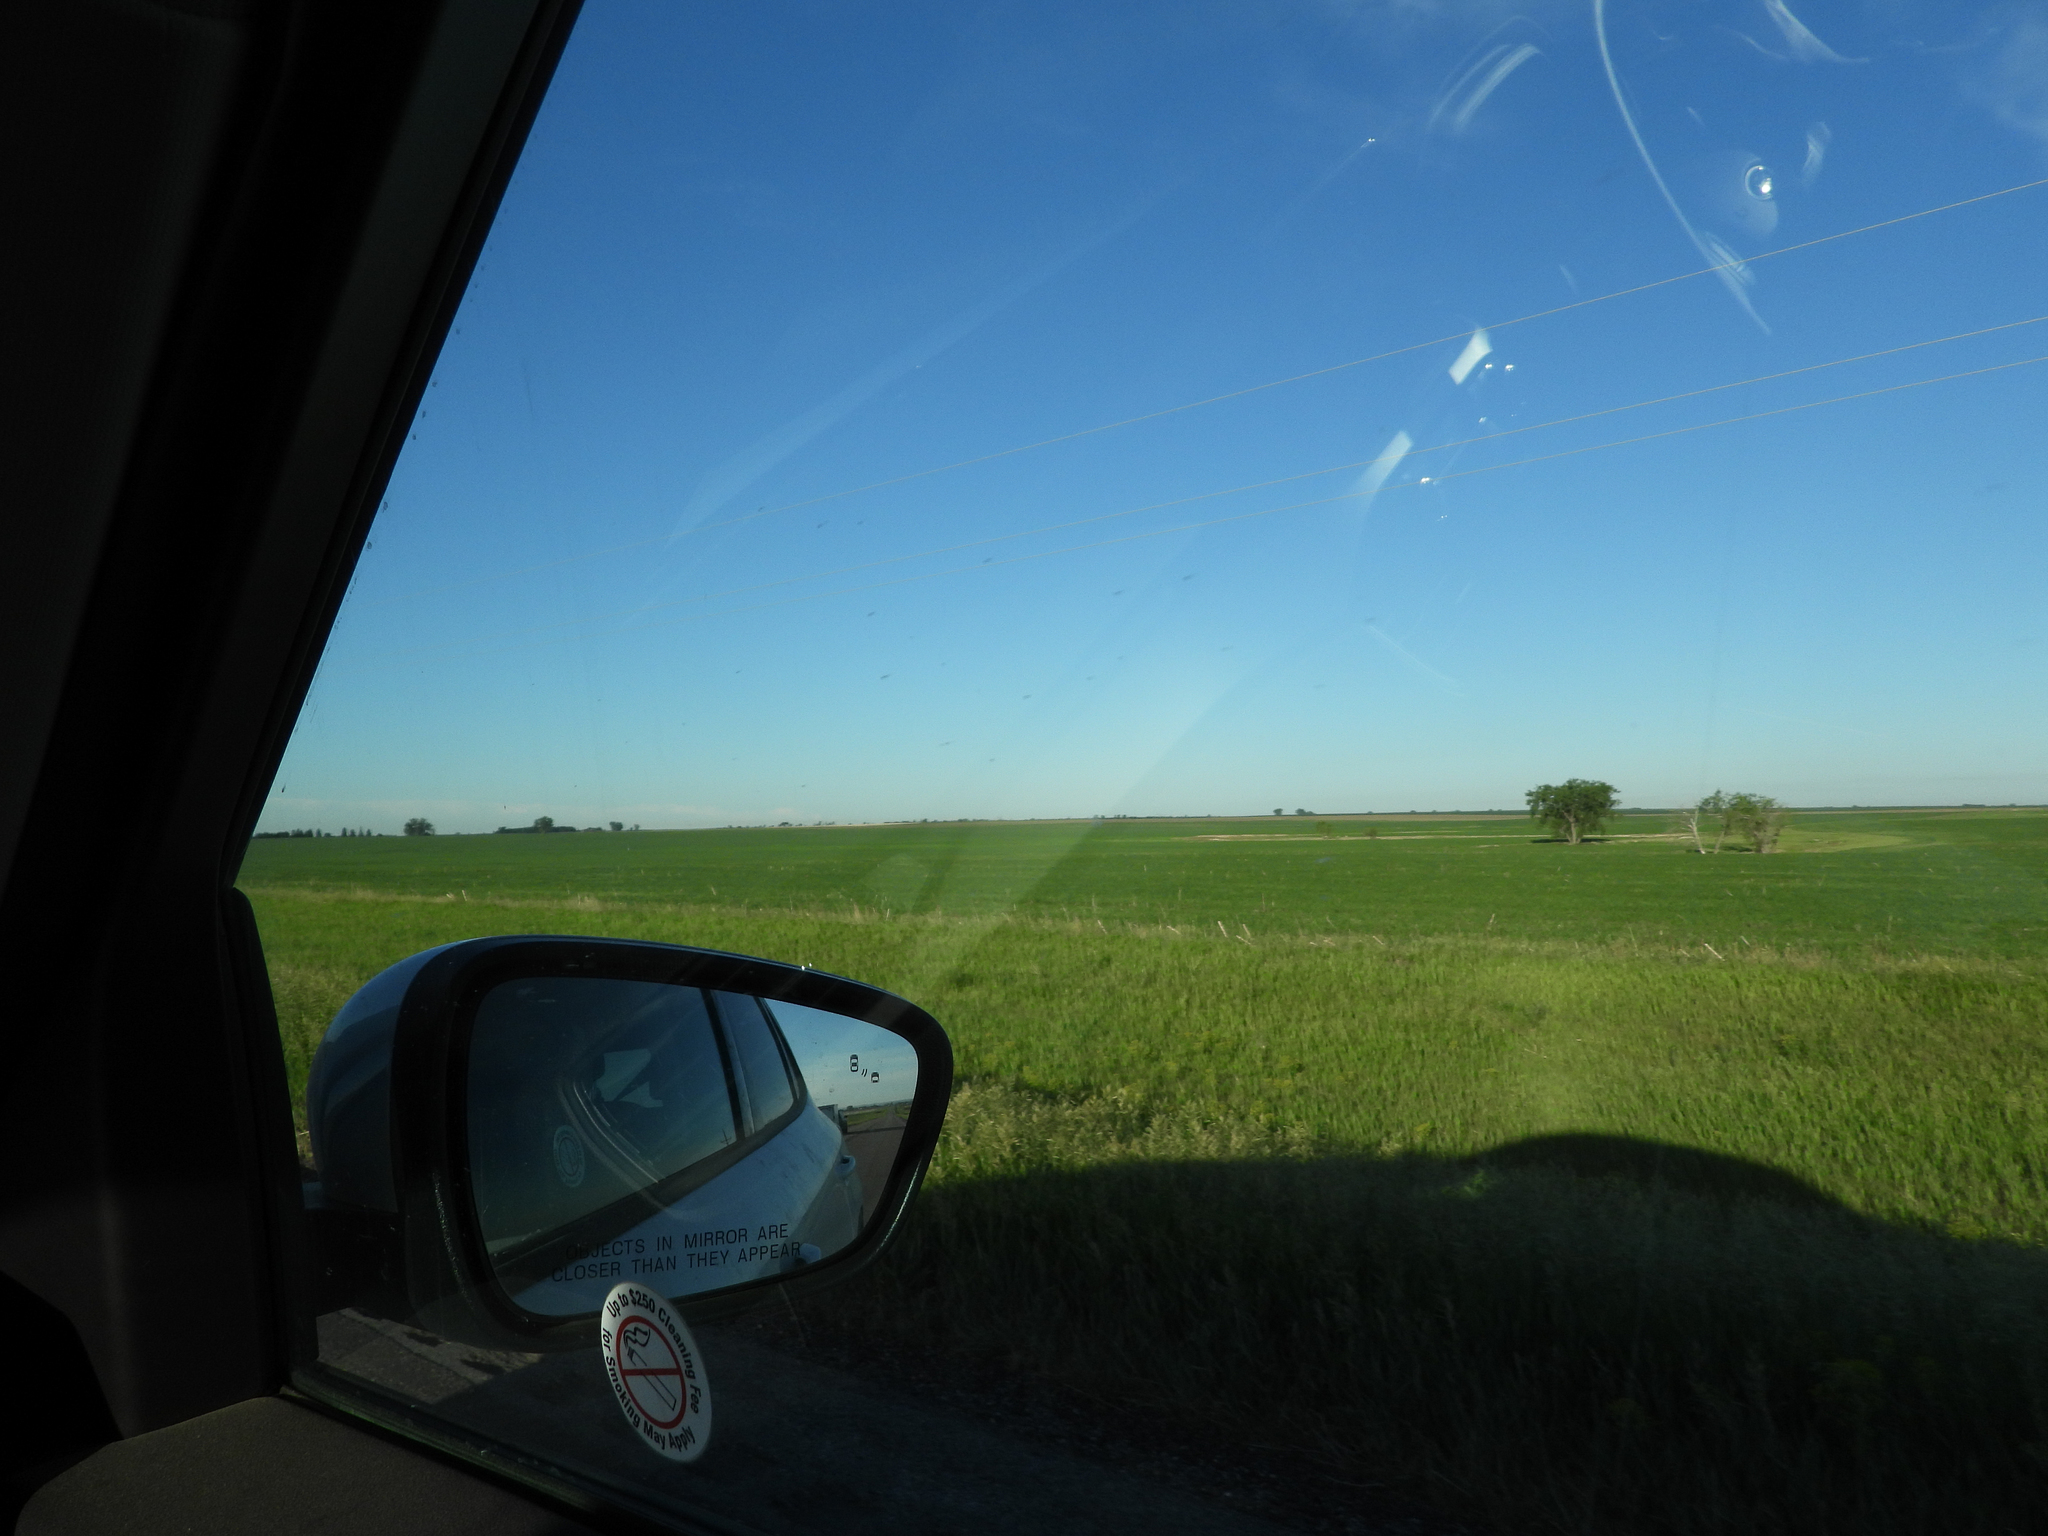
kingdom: Animalia
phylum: Chordata
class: Mammalia
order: Artiodactyla
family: Antilocapridae
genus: Antilocapra
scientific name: Antilocapra americana
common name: Pronghorn
